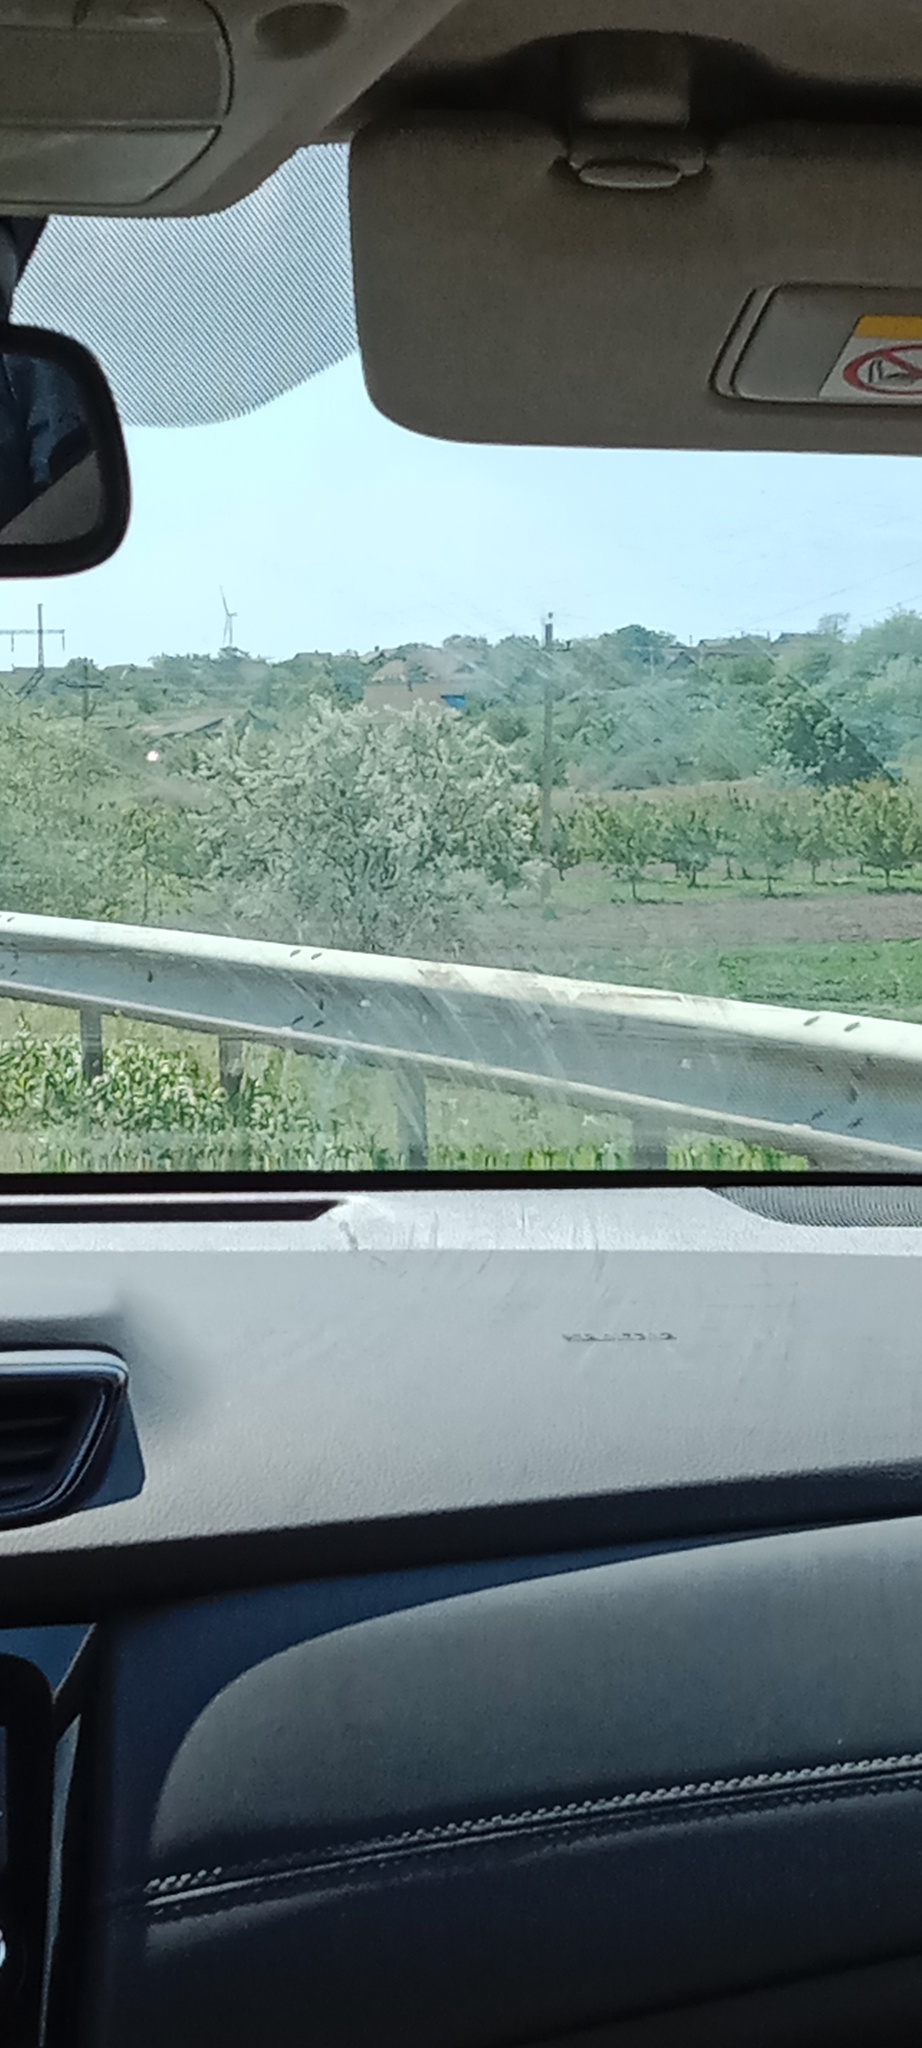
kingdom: Plantae
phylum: Tracheophyta
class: Magnoliopsida
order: Rosales
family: Elaeagnaceae
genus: Elaeagnus
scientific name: Elaeagnus angustifolia
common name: Russian olive
